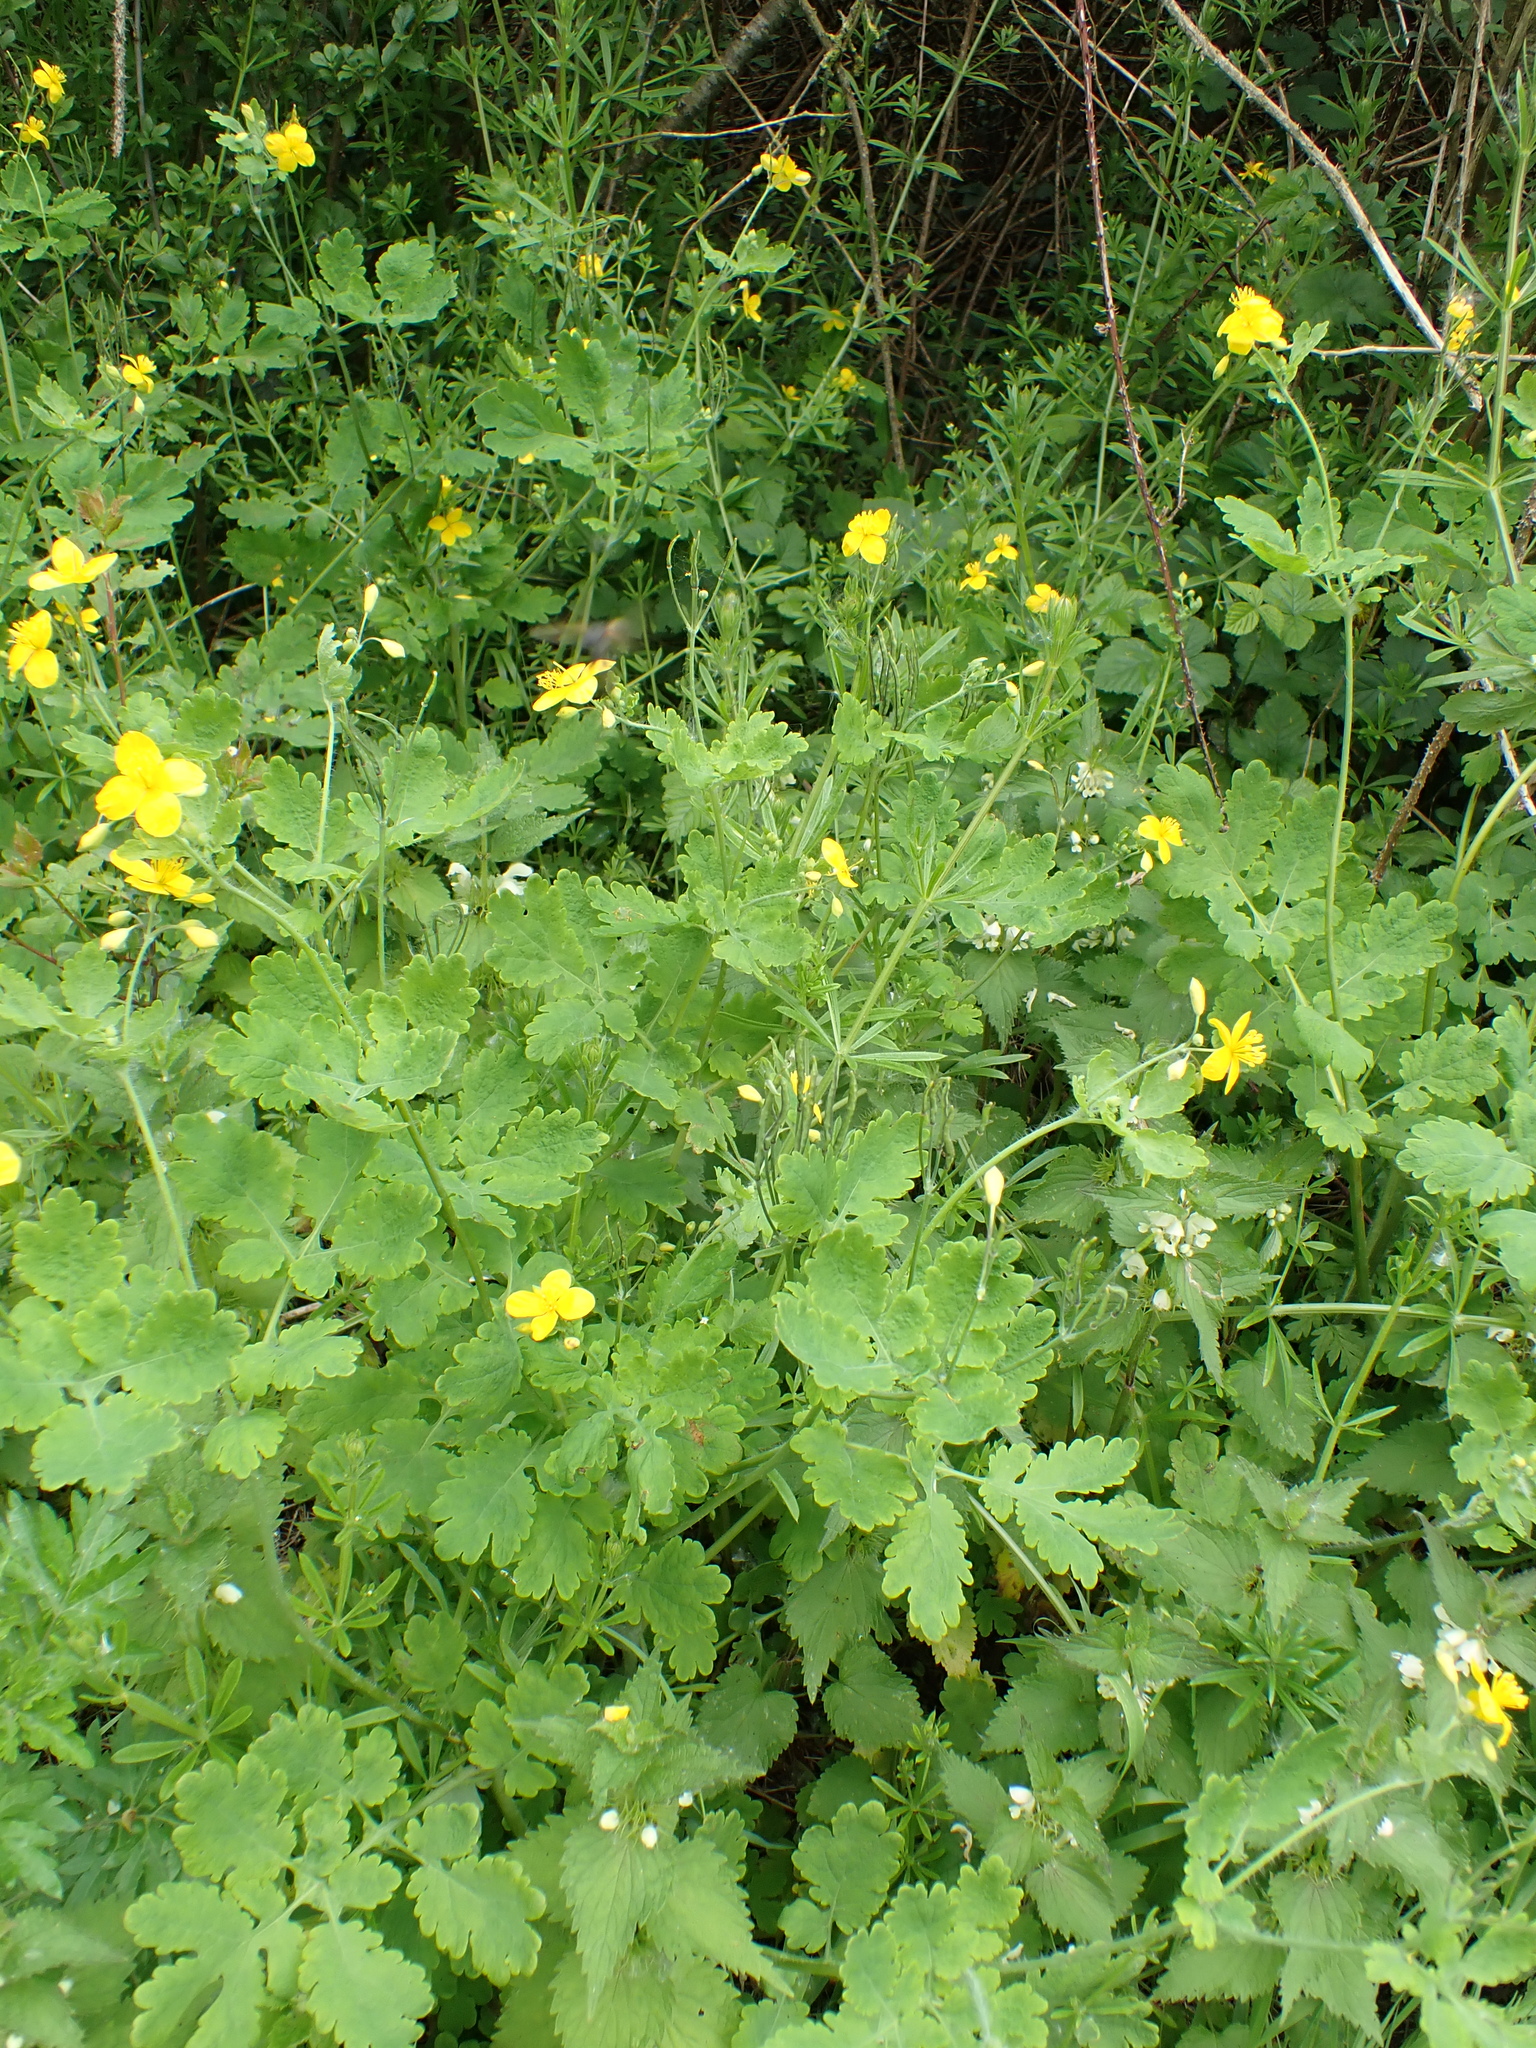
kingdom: Plantae
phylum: Tracheophyta
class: Magnoliopsida
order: Ranunculales
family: Papaveraceae
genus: Chelidonium
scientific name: Chelidonium majus
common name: Greater celandine
